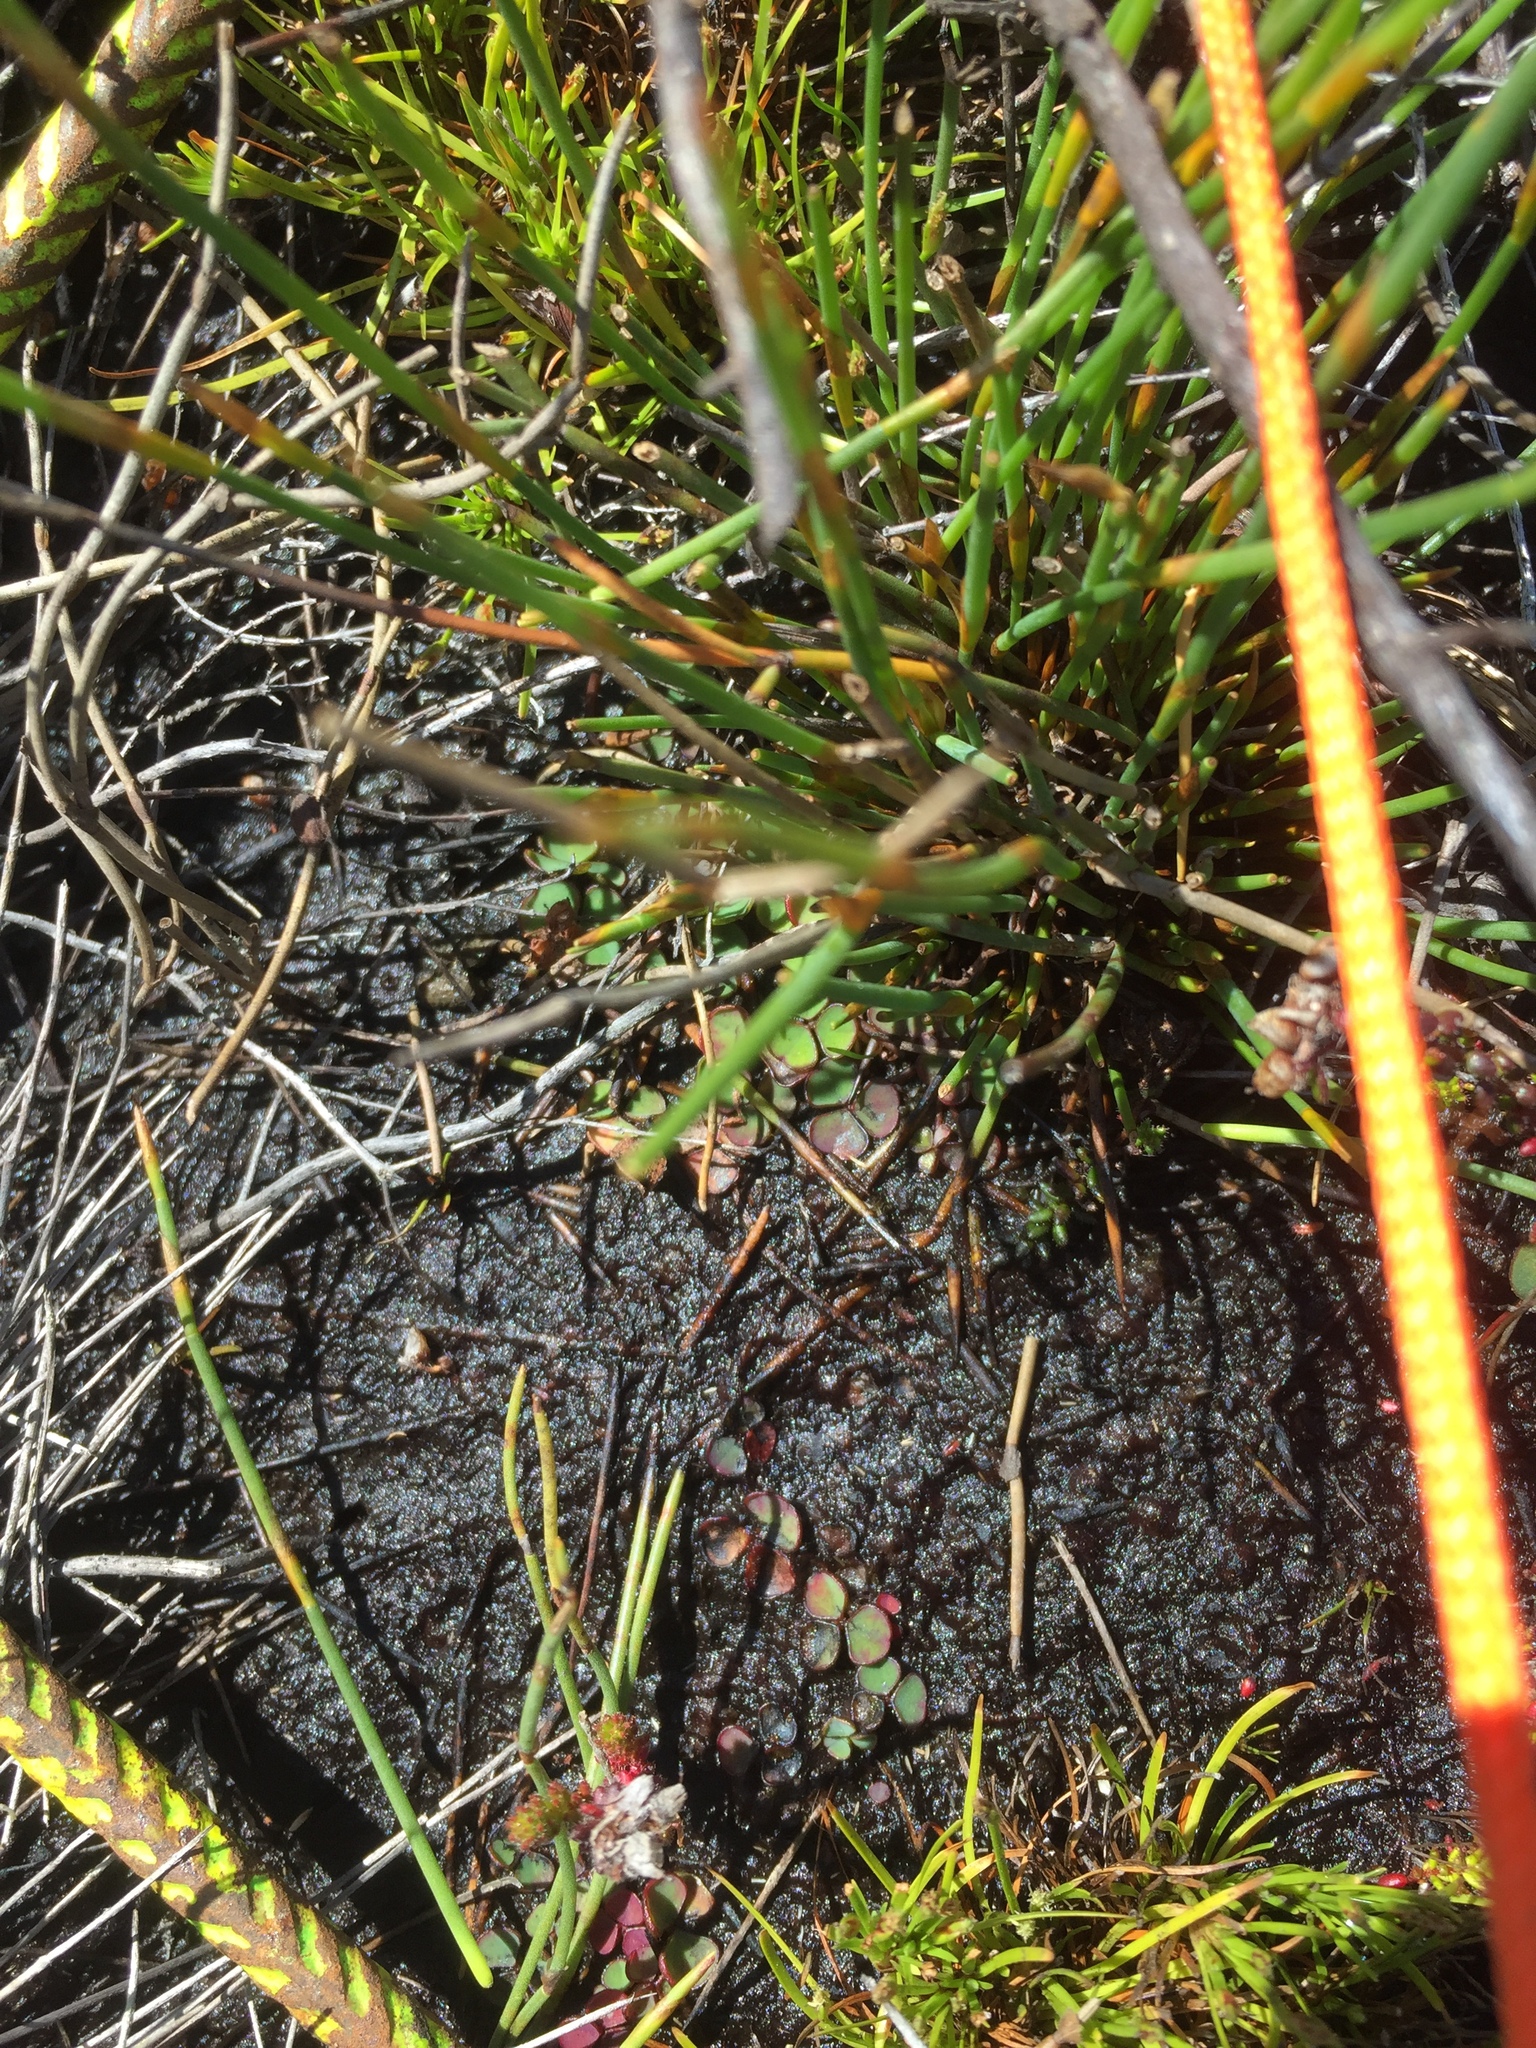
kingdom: Plantae
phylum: Tracheophyta
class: Magnoliopsida
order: Oxalidales
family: Oxalidaceae
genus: Oxalis
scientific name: Oxalis commutata
